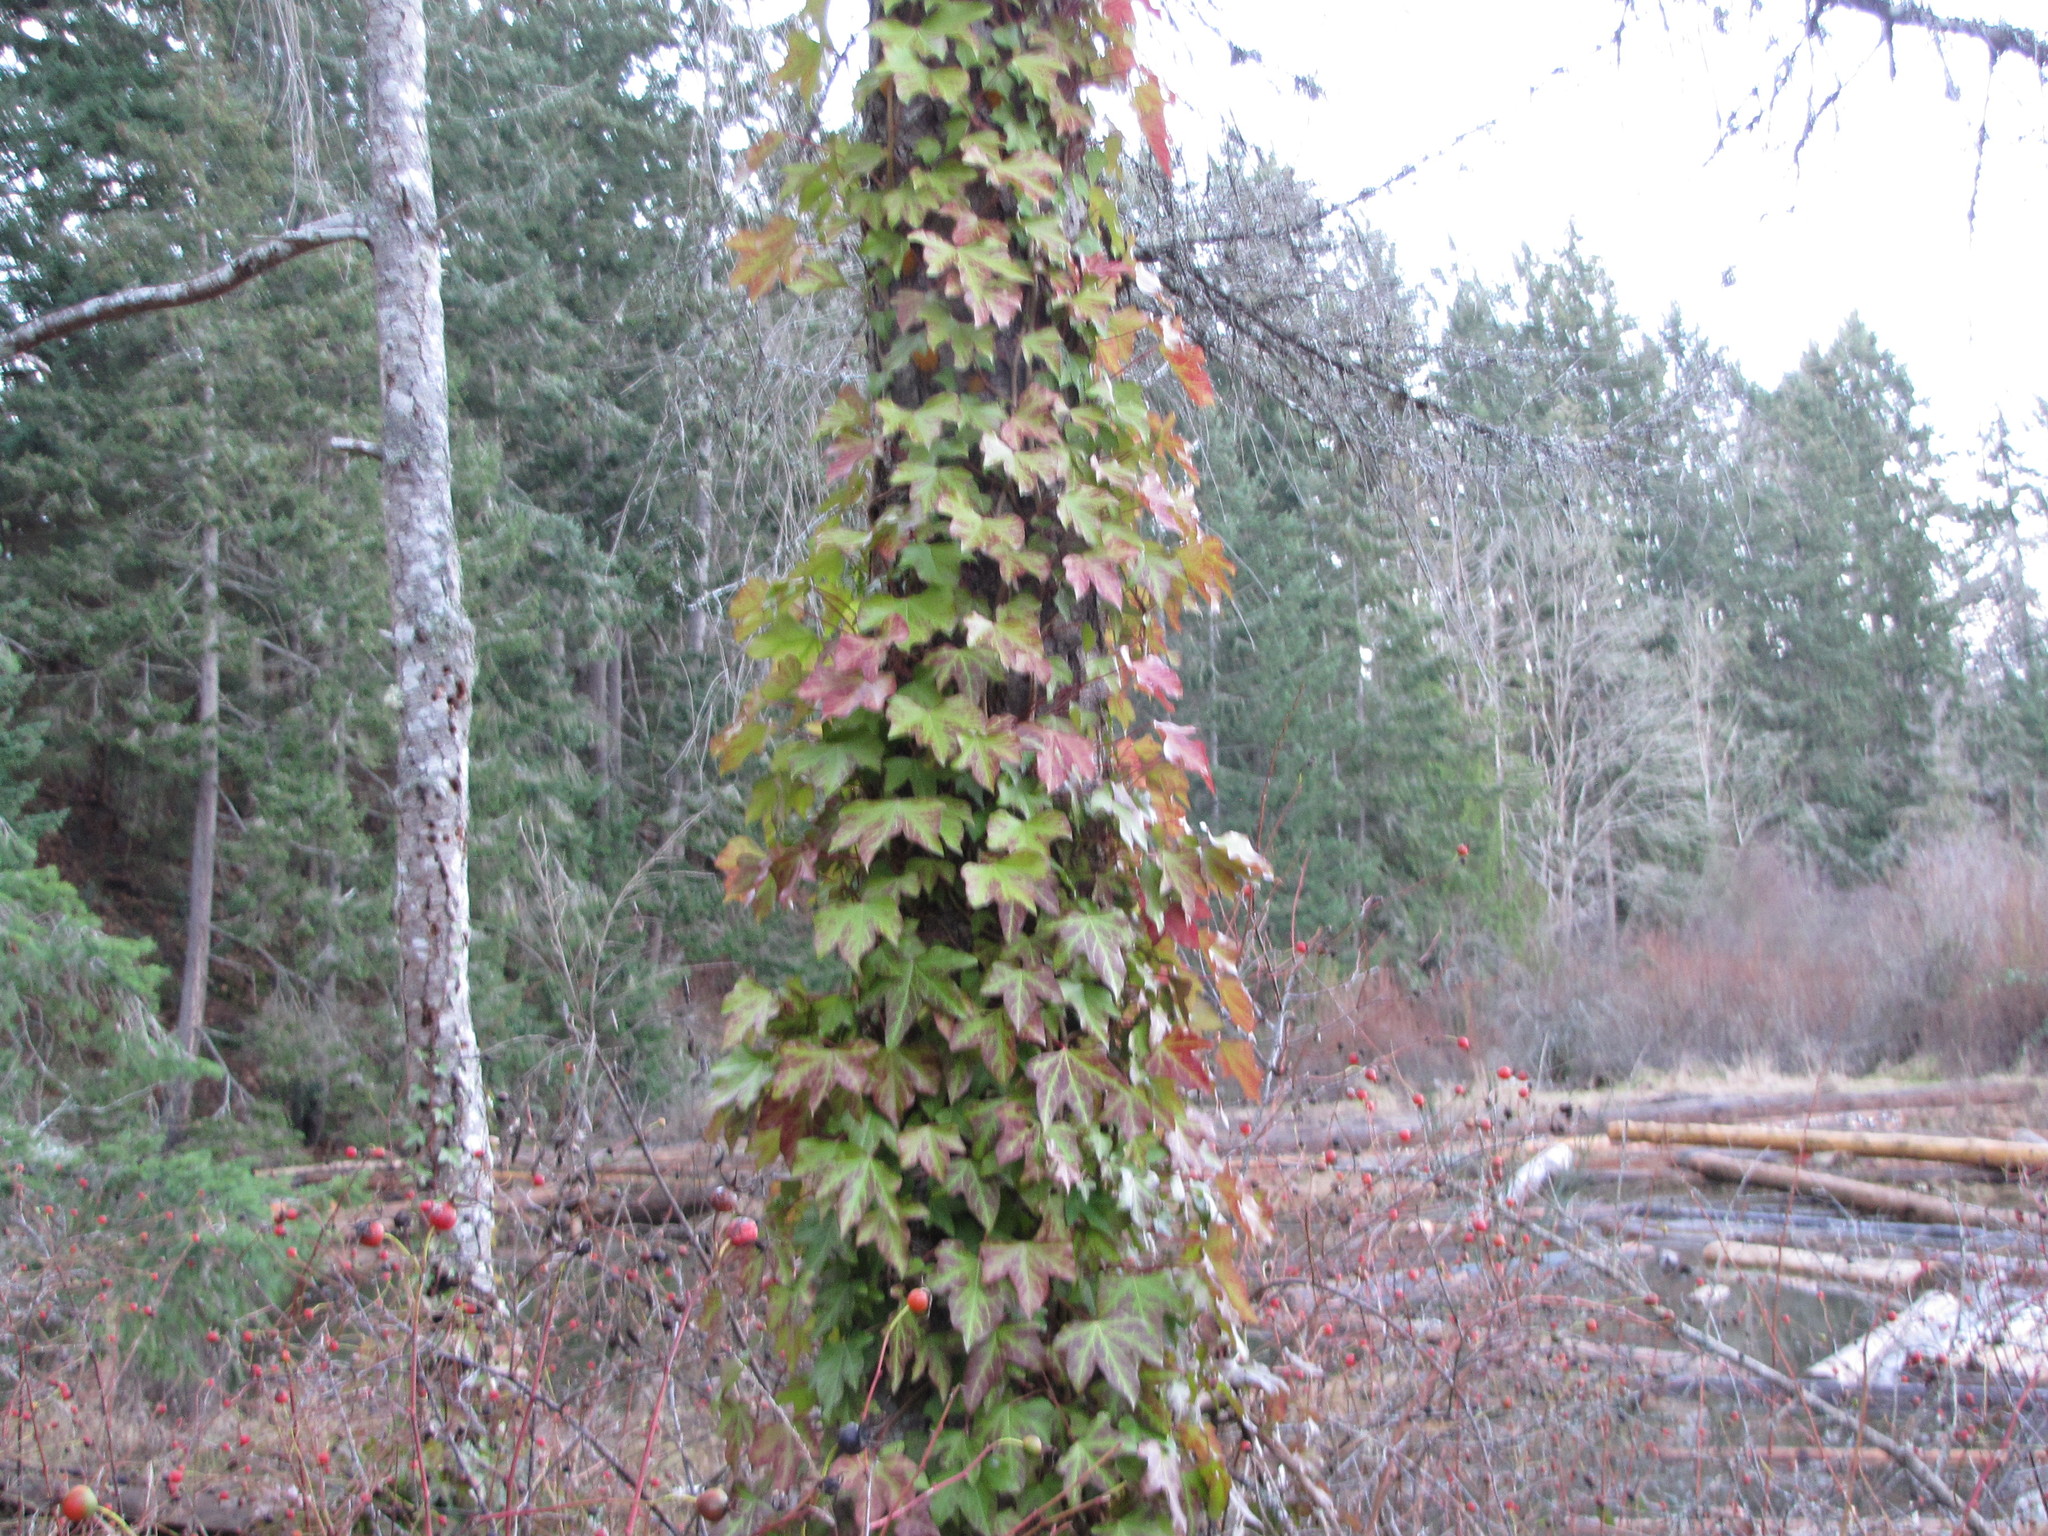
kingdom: Plantae
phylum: Tracheophyta
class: Magnoliopsida
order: Apiales
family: Araliaceae
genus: Hedera
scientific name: Hedera helix
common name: Ivy
